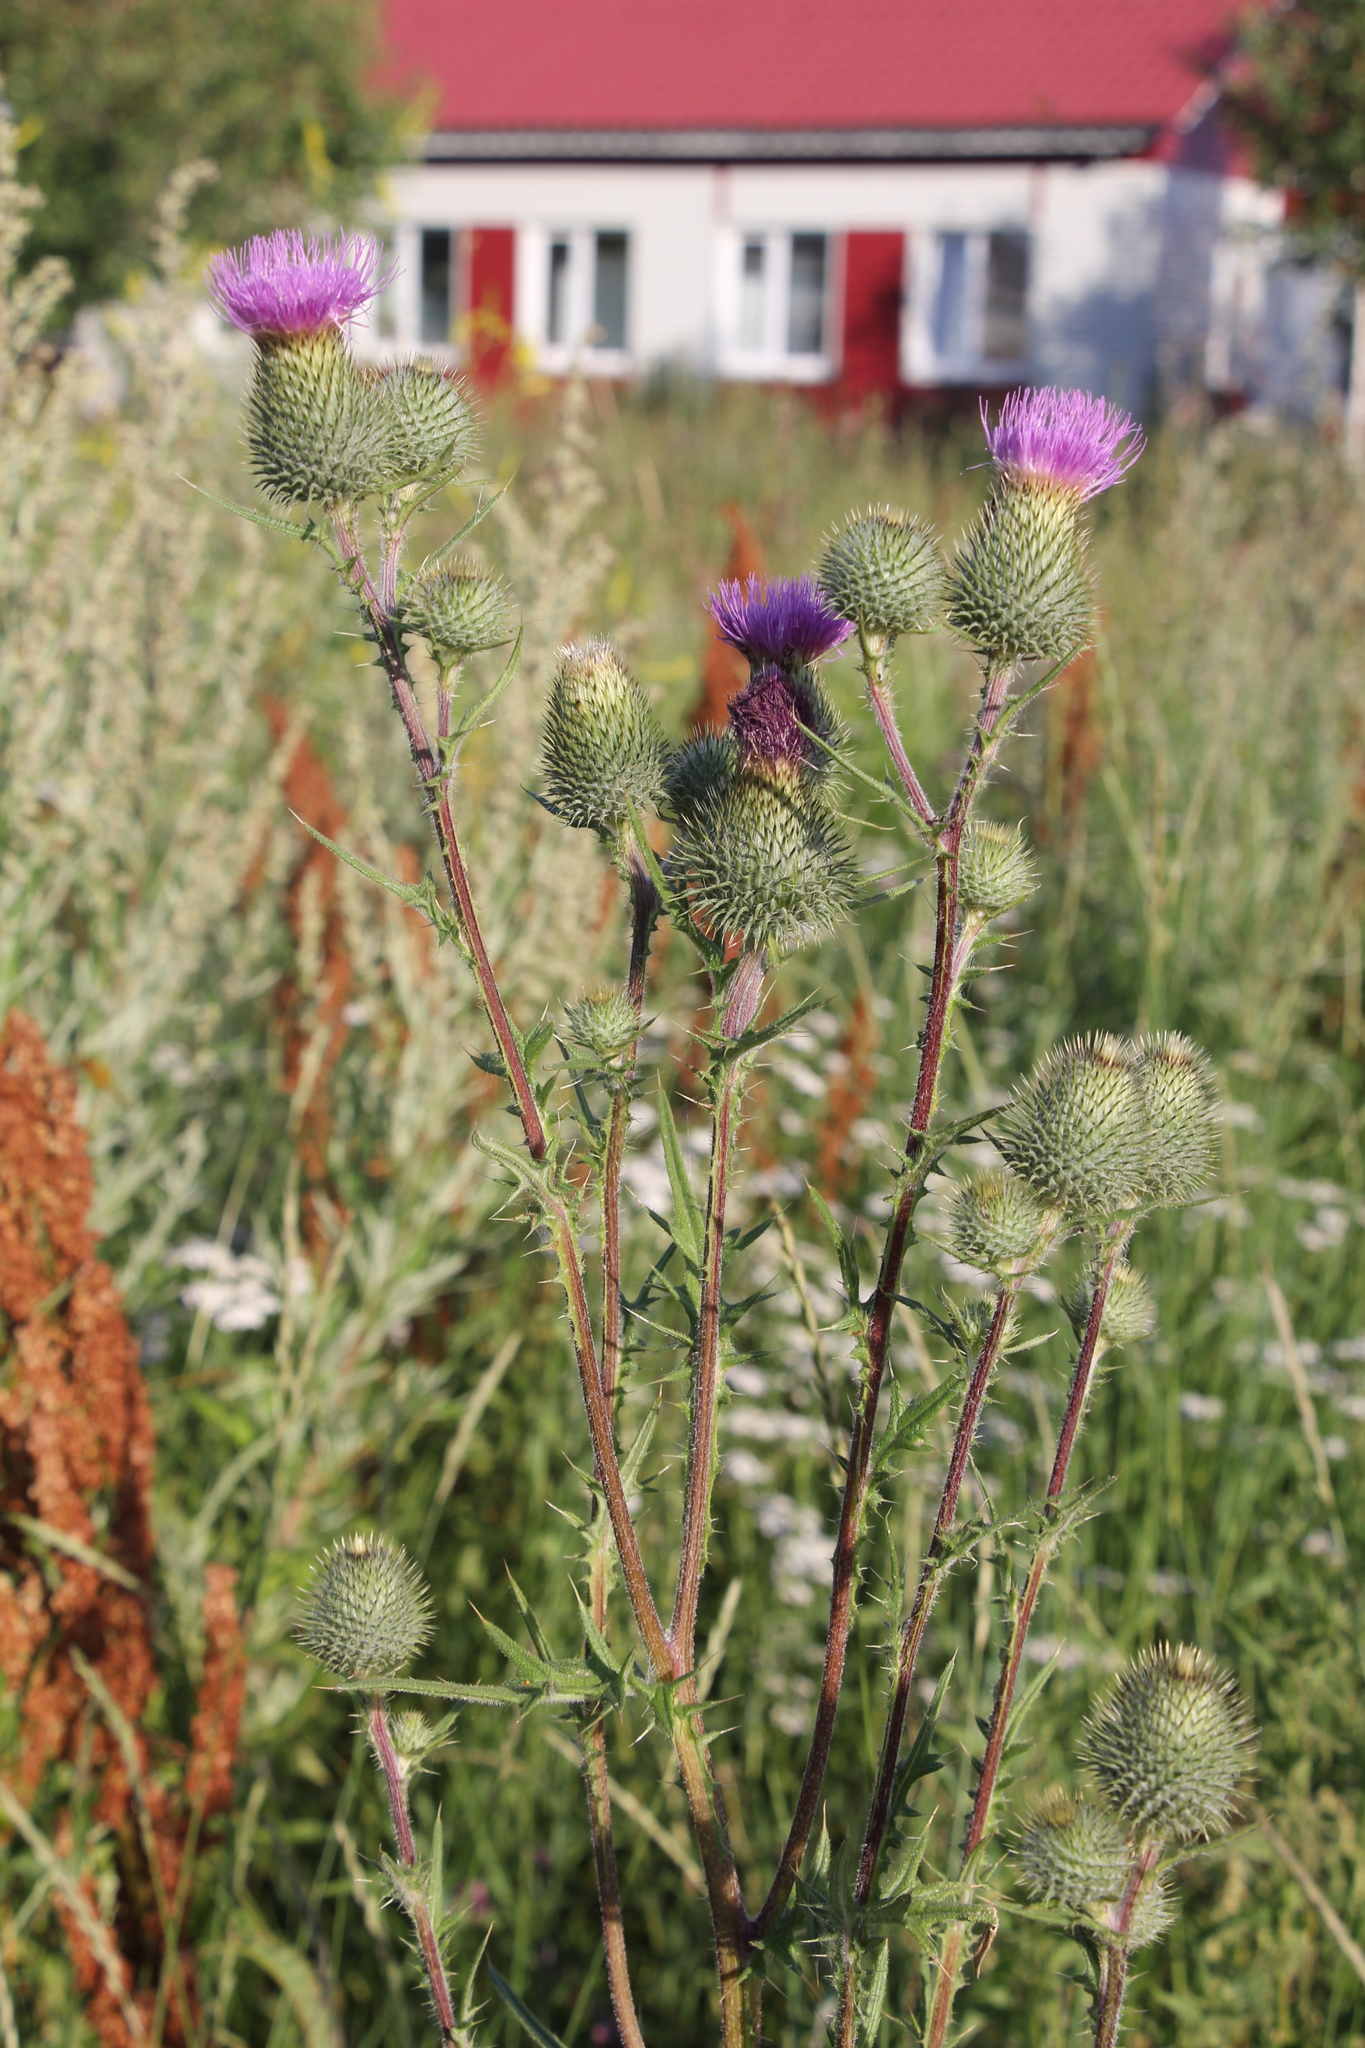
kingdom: Plantae
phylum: Tracheophyta
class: Magnoliopsida
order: Asterales
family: Asteraceae
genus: Cirsium
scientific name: Cirsium vulgare
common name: Bull thistle
